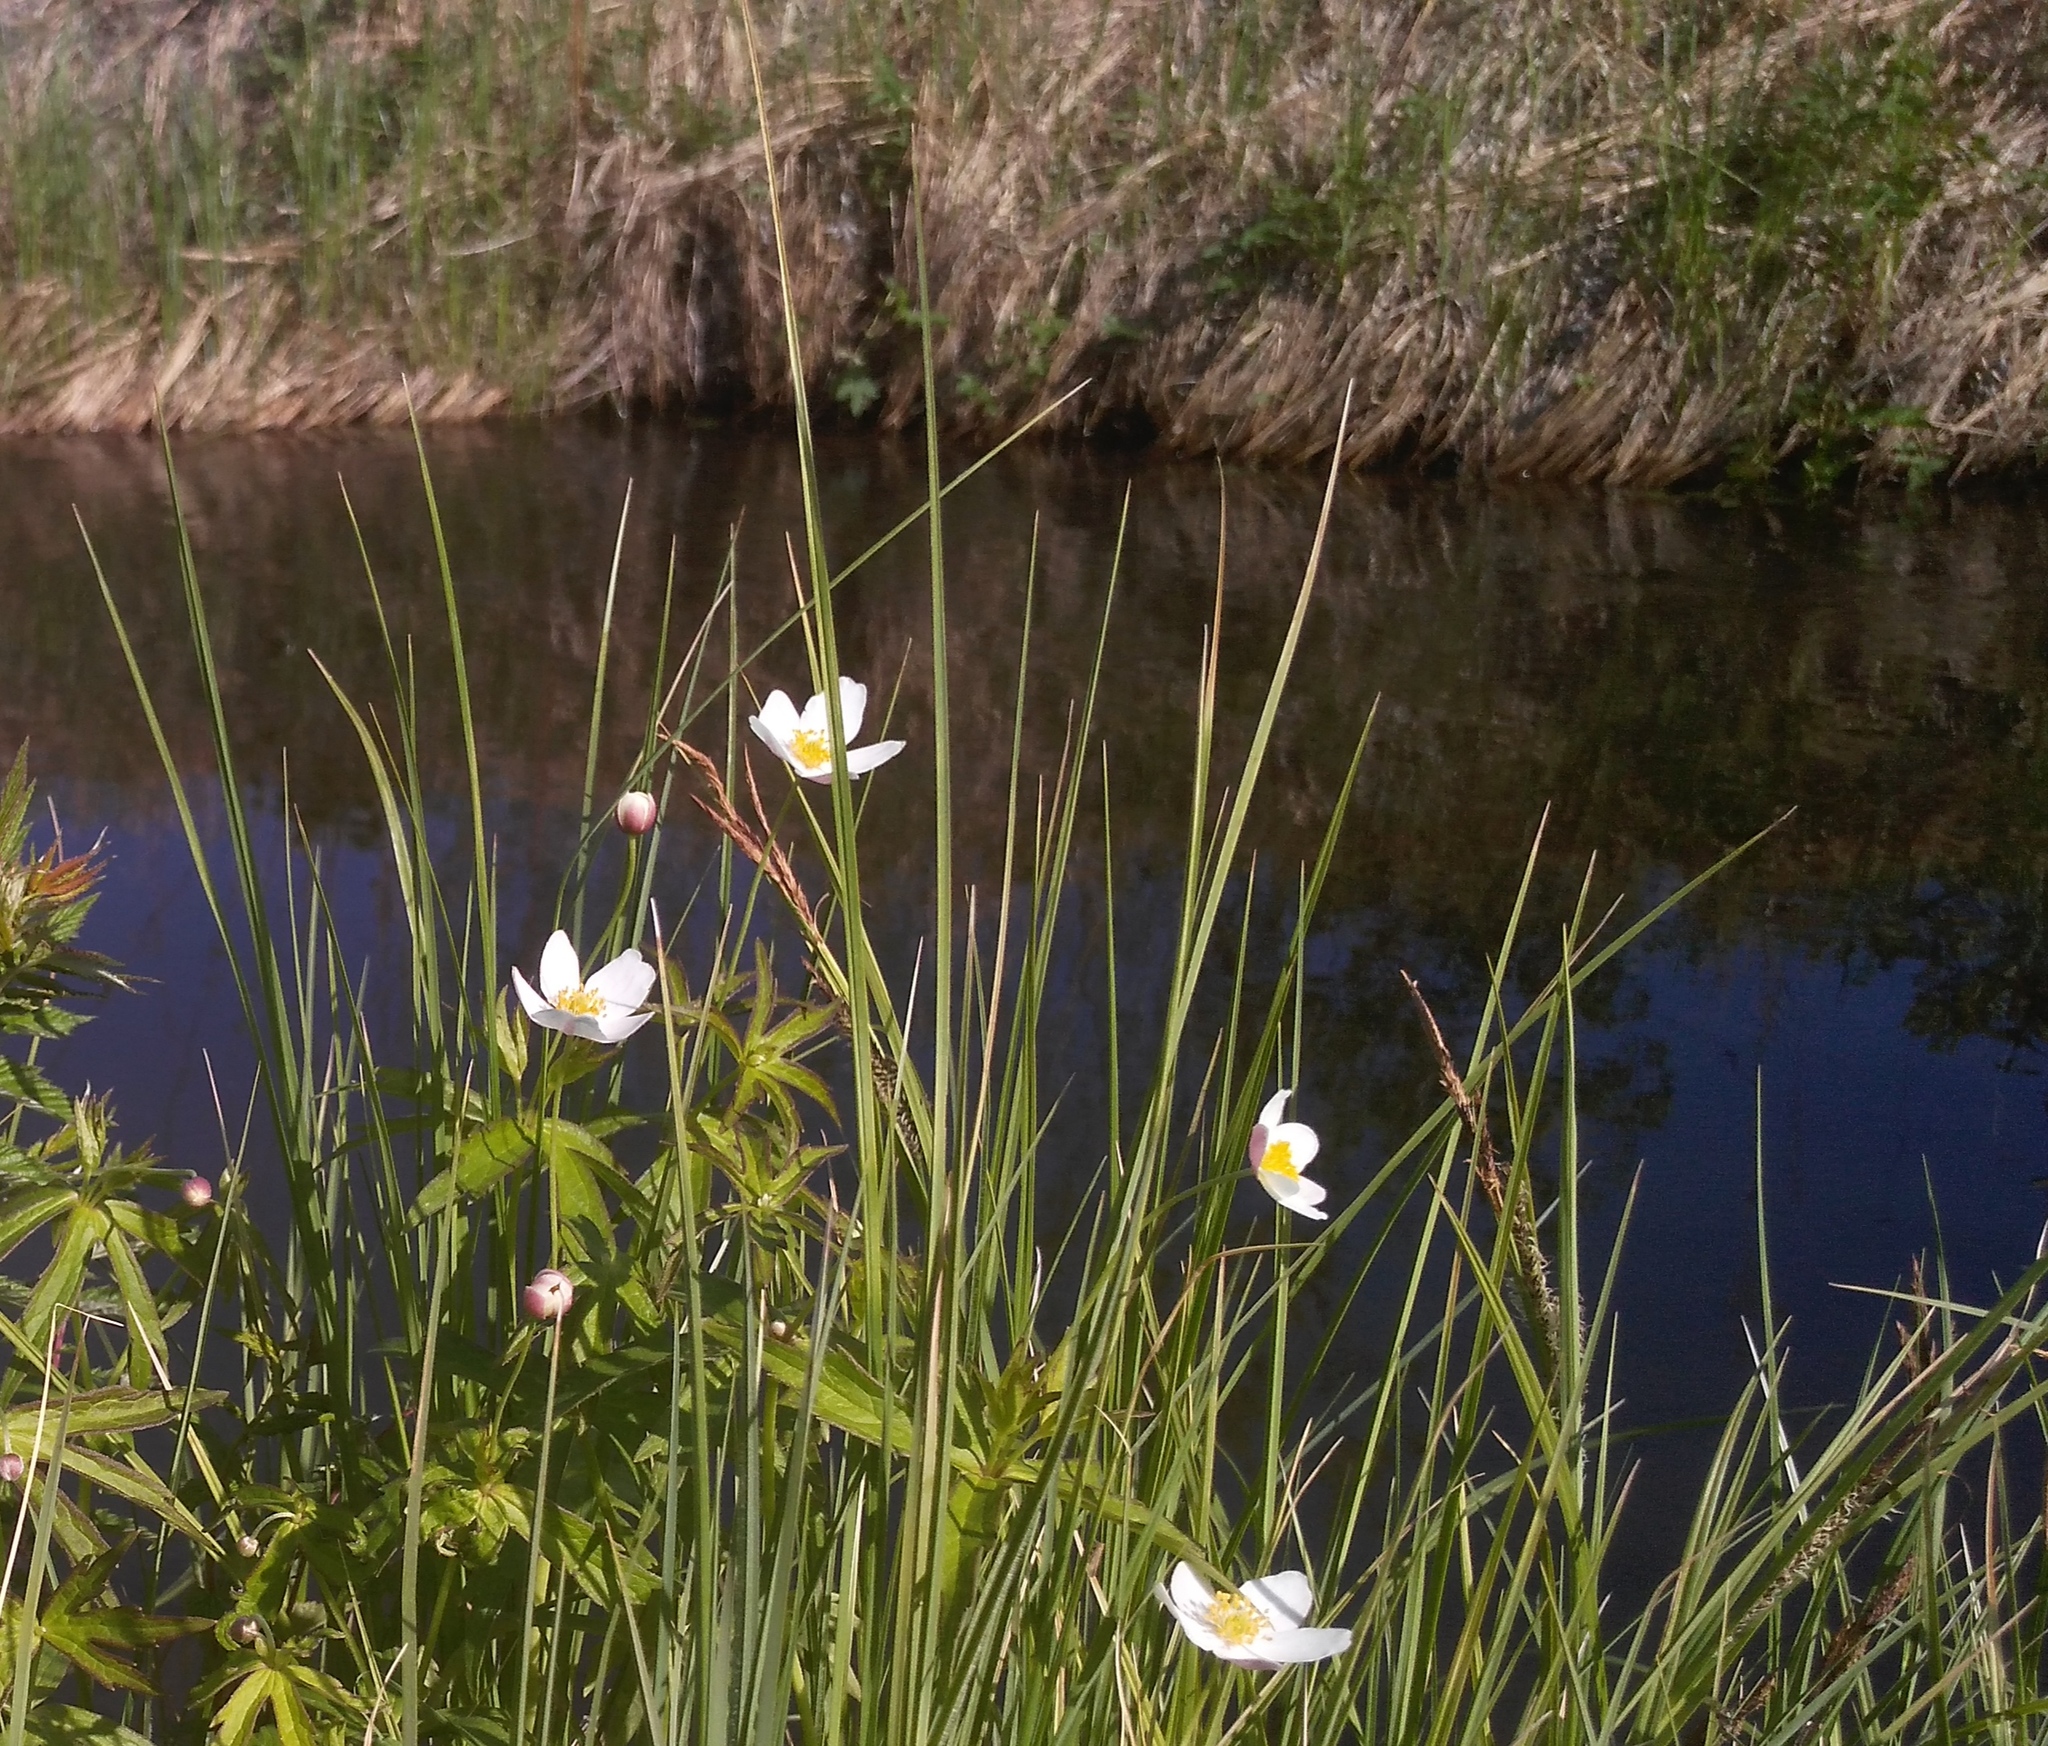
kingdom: Plantae
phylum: Tracheophyta
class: Magnoliopsida
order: Ranunculales
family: Ranunculaceae
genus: Anemonastrum
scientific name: Anemonastrum dichotomum
